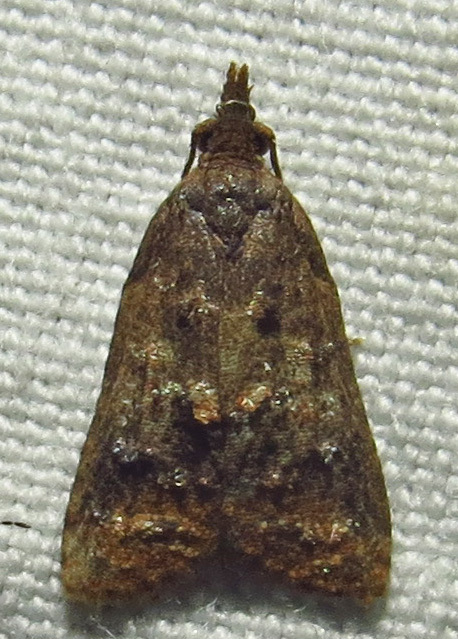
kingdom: Animalia
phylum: Arthropoda
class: Insecta
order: Lepidoptera
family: Tortricidae
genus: Platynota
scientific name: Platynota idaeusalis
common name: Tufted apple bud moth
